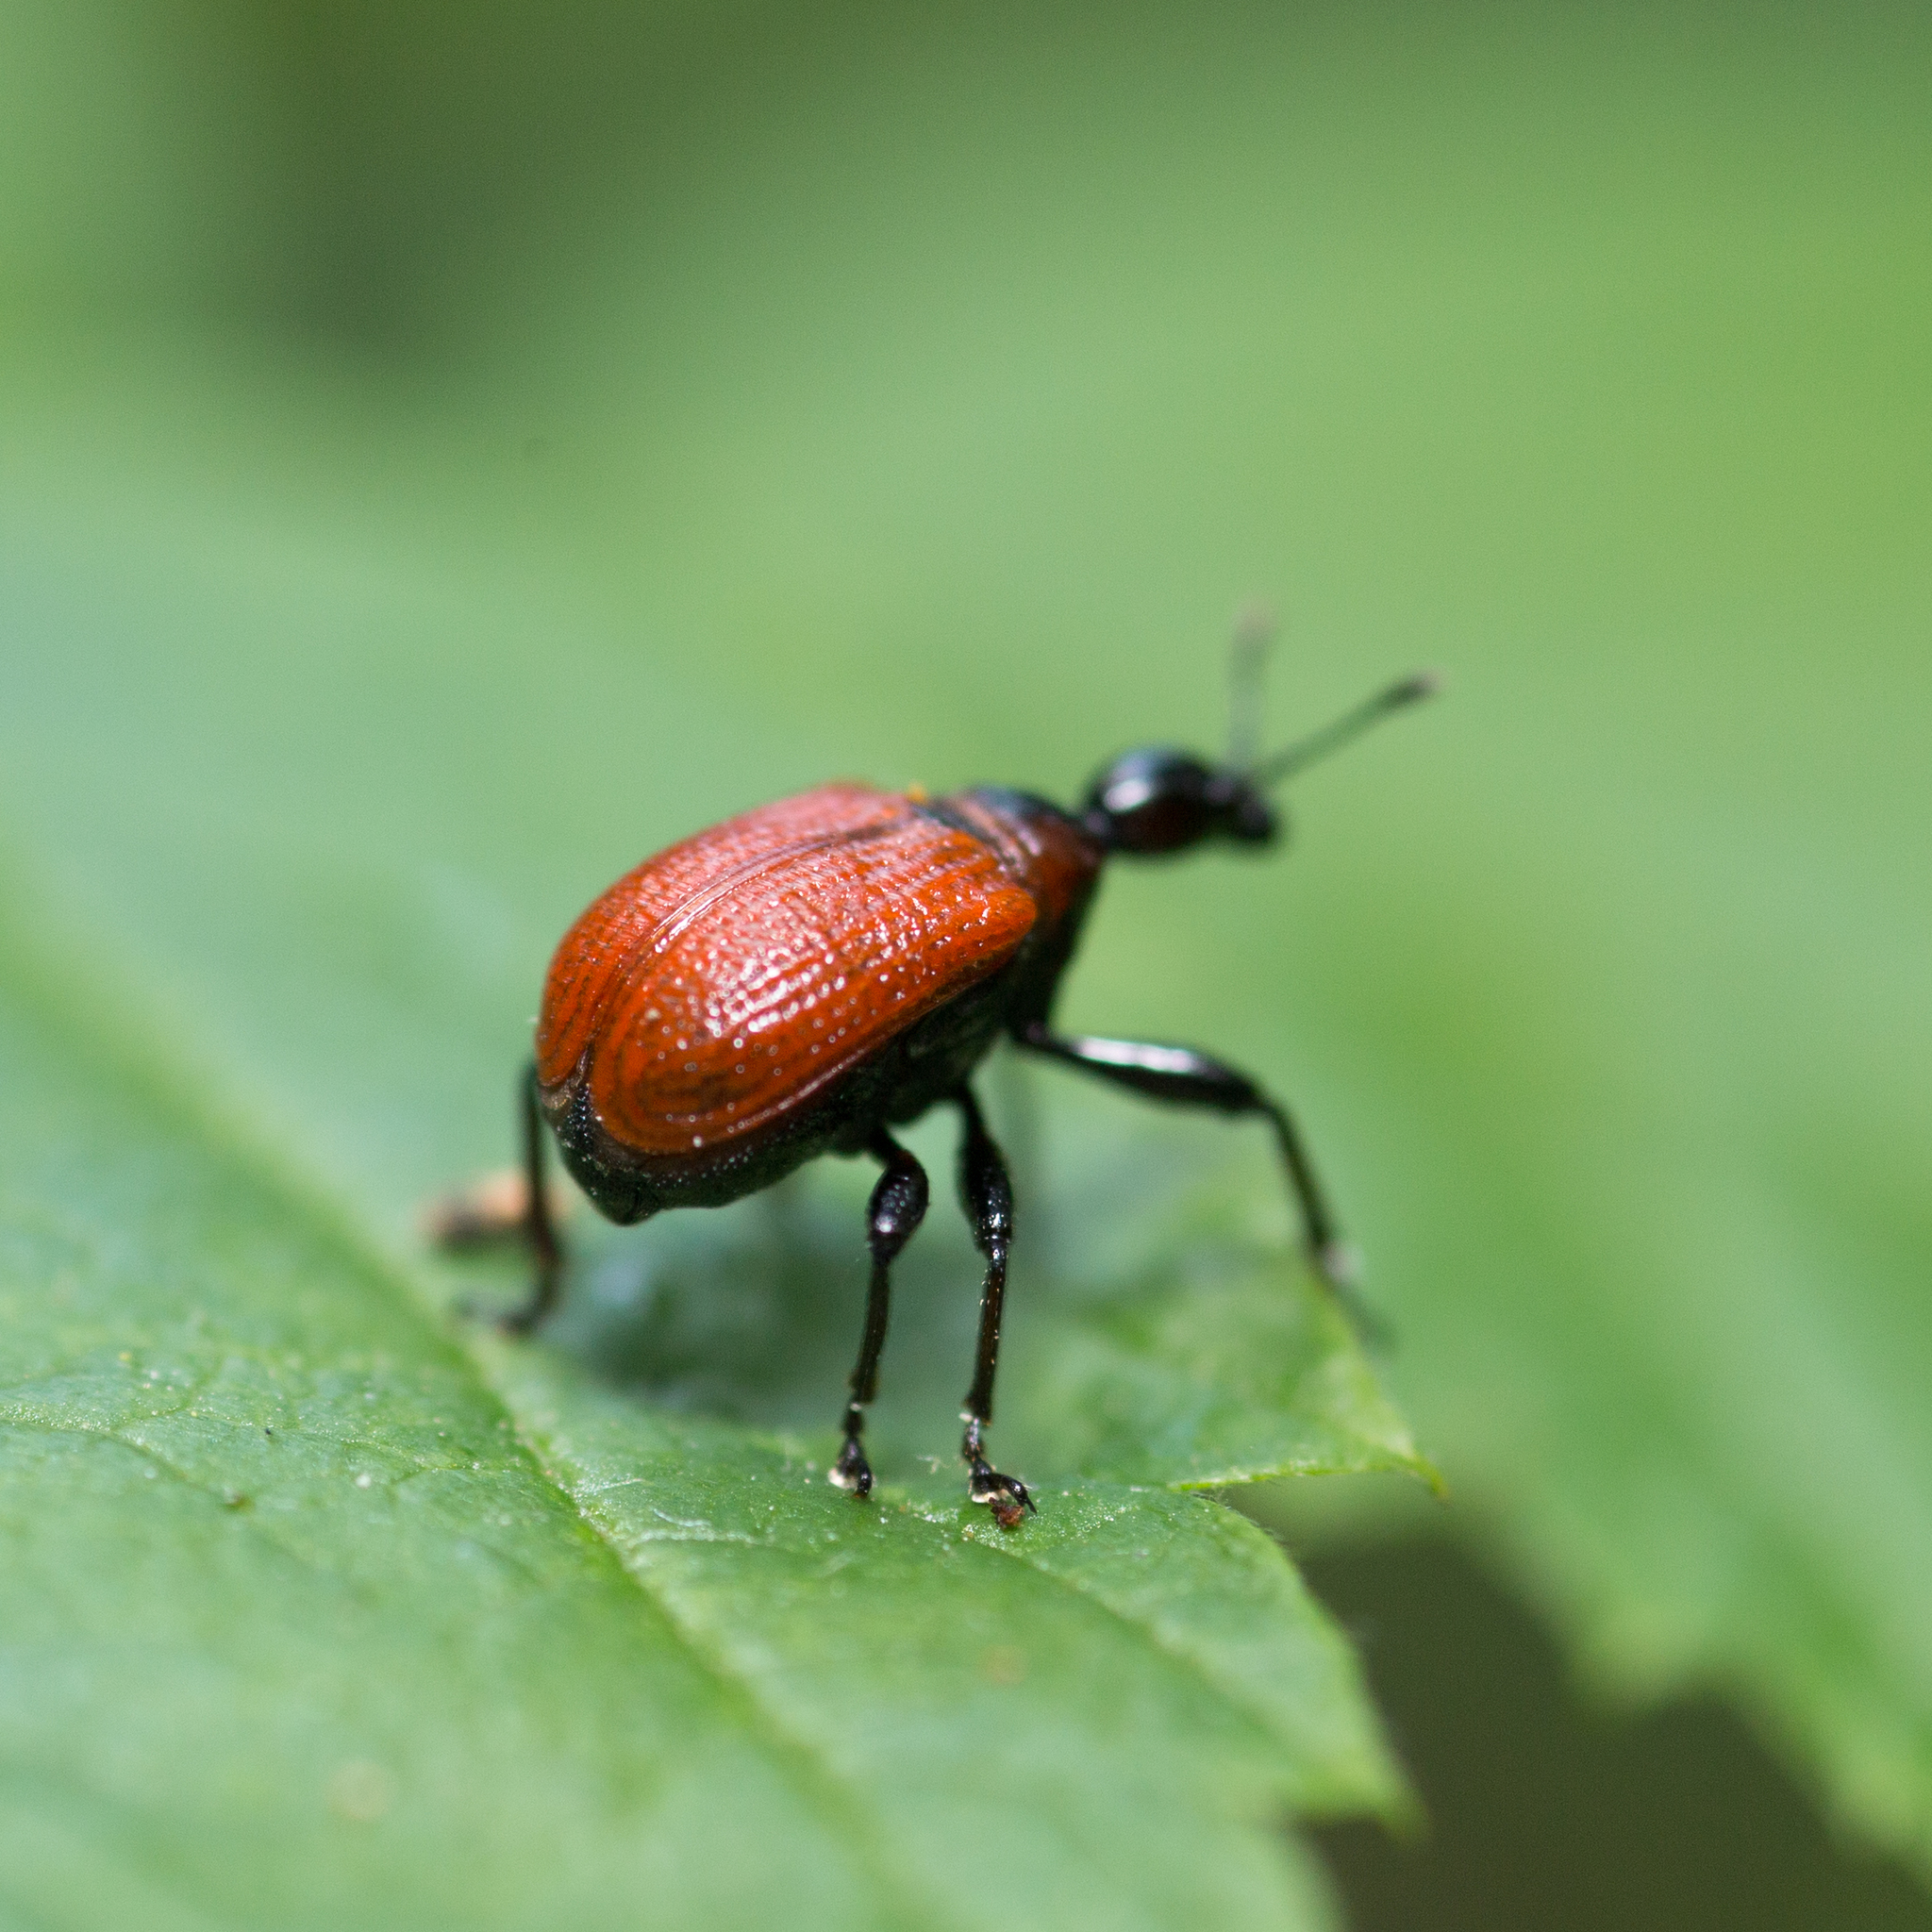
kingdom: Animalia
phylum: Arthropoda
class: Insecta
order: Coleoptera
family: Attelabidae
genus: Apoderus
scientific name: Apoderus coryli
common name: Hazel leaf roller
